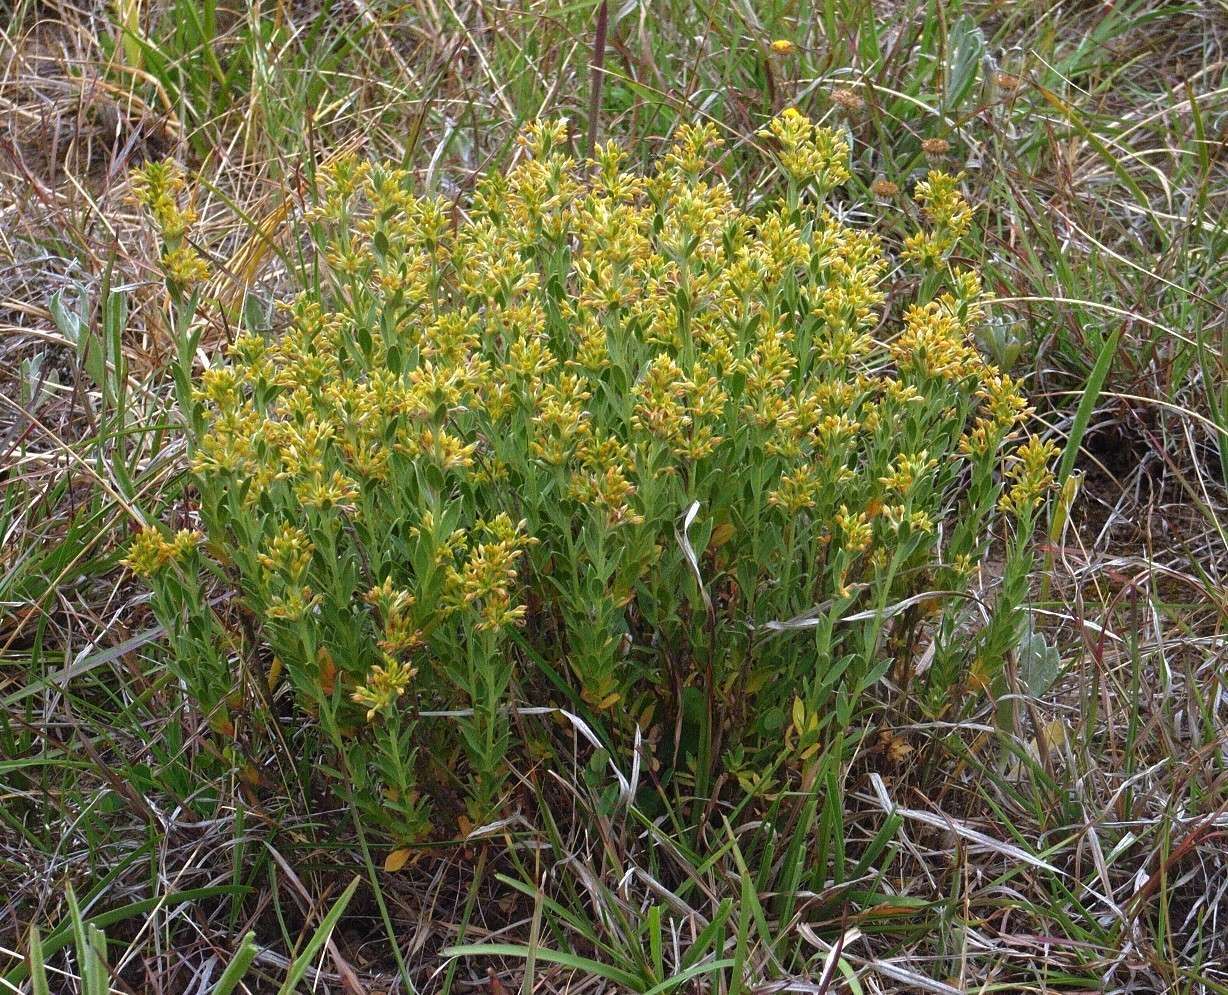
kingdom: Plantae
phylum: Tracheophyta
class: Magnoliopsida
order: Malvales
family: Thymelaeaceae
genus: Pimelea
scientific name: Pimelea curviflora
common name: Curved riceflower
